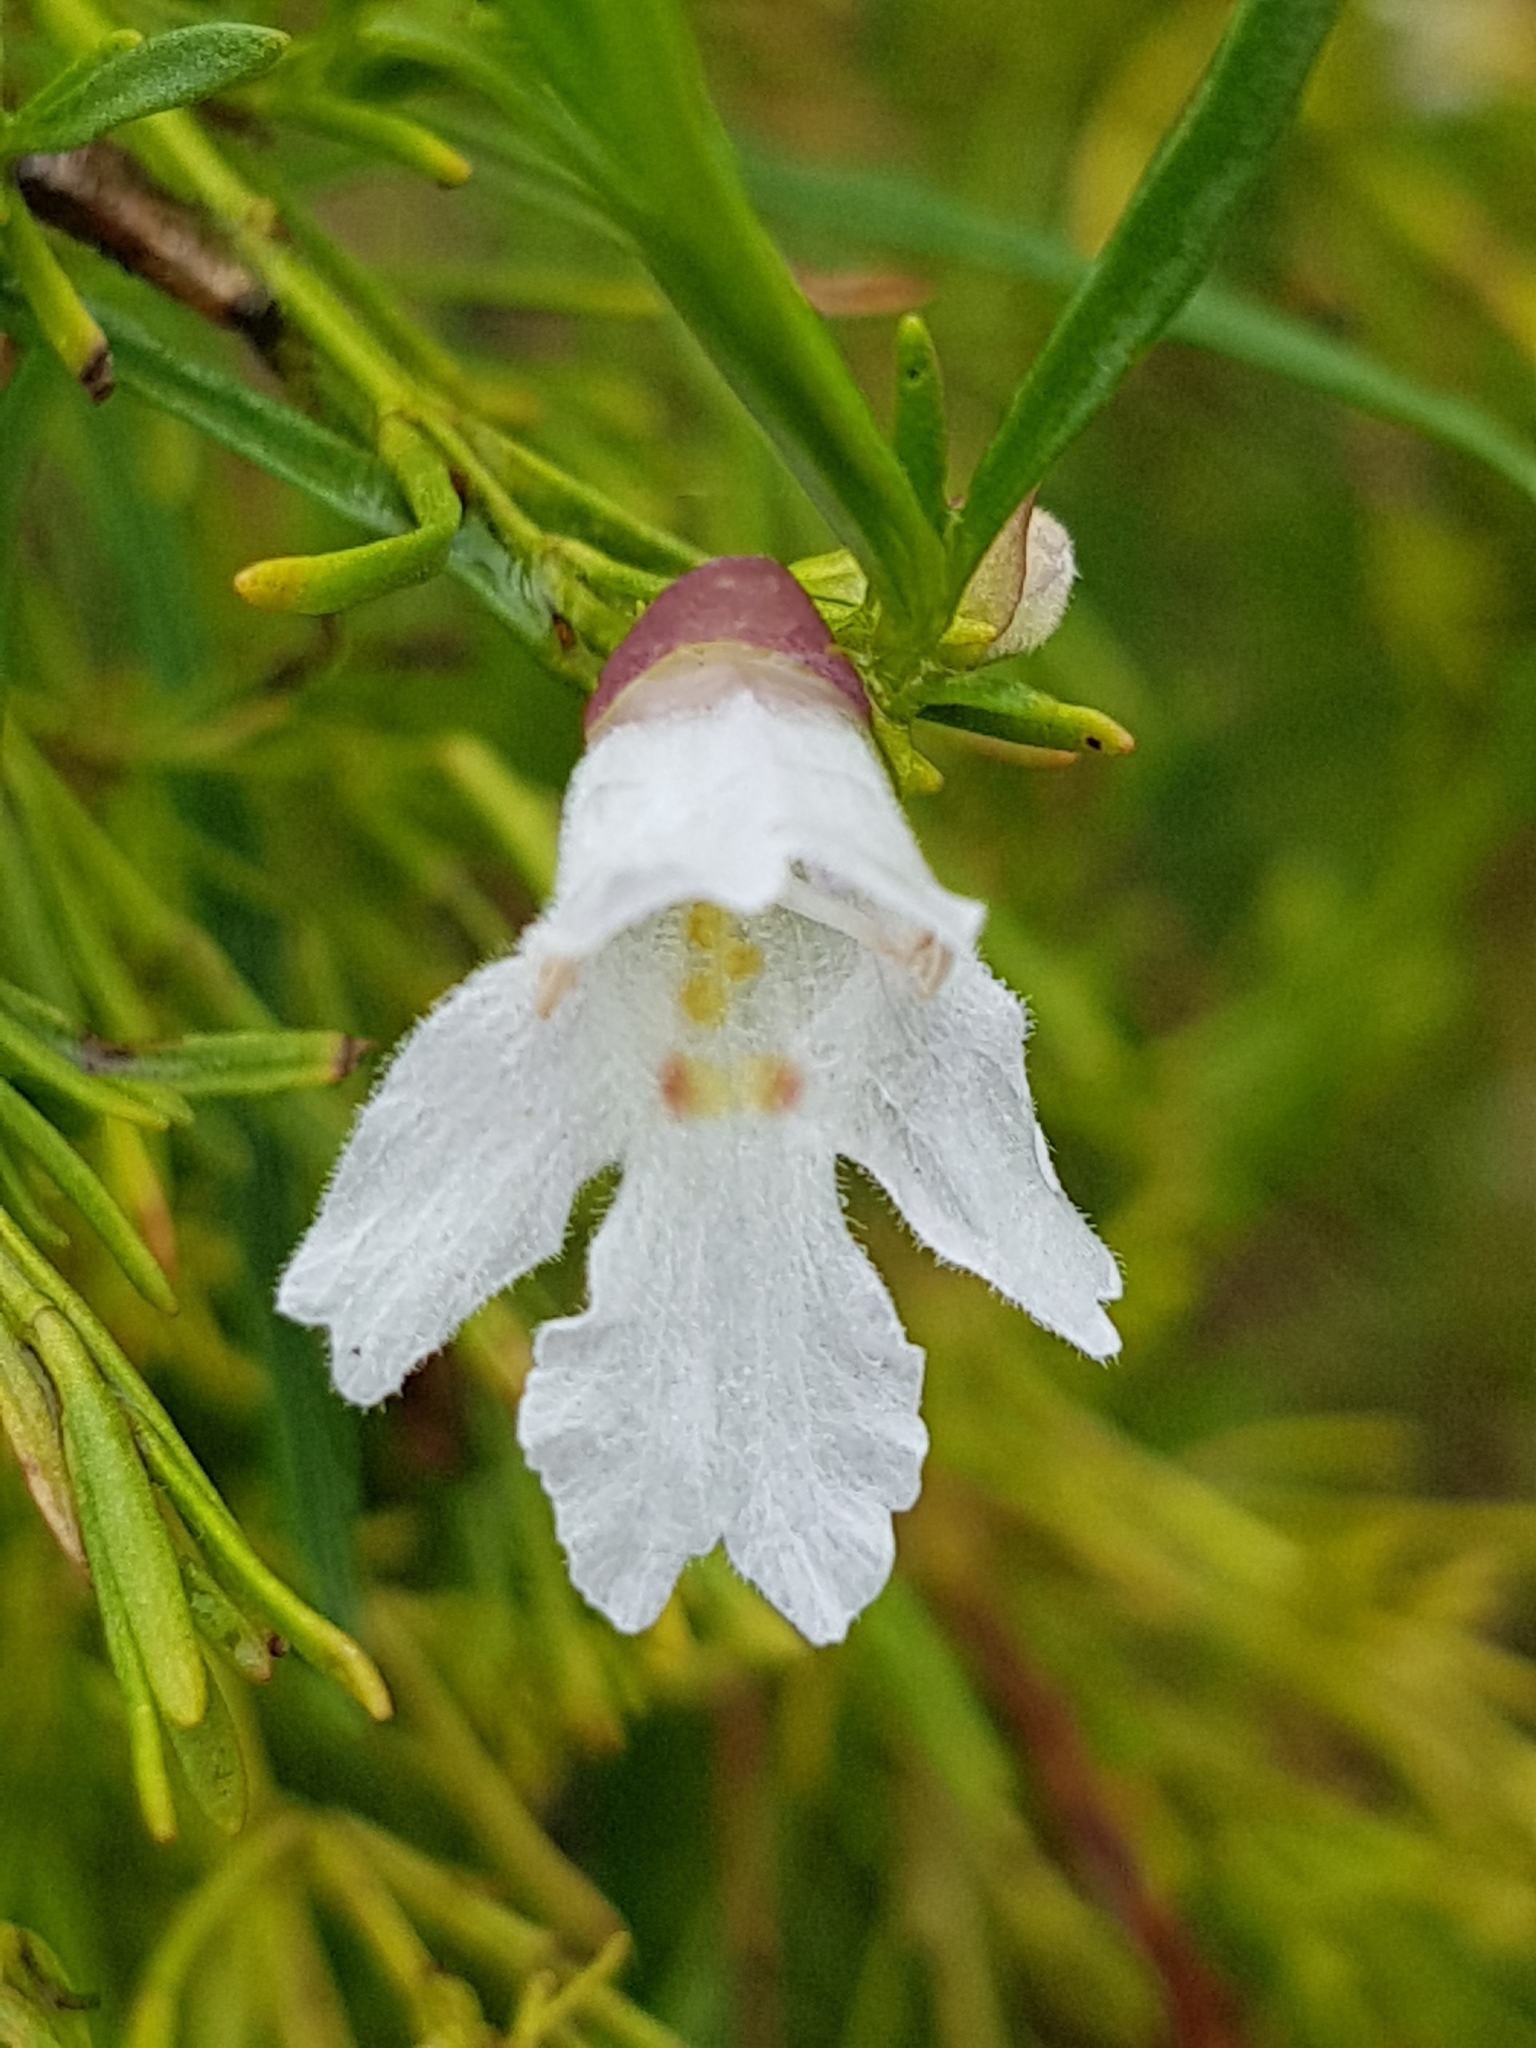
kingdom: Plantae
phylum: Tracheophyta
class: Magnoliopsida
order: Lamiales
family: Lamiaceae
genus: Prostanthera
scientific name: Prostanthera nivea
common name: Snowy mintbush
